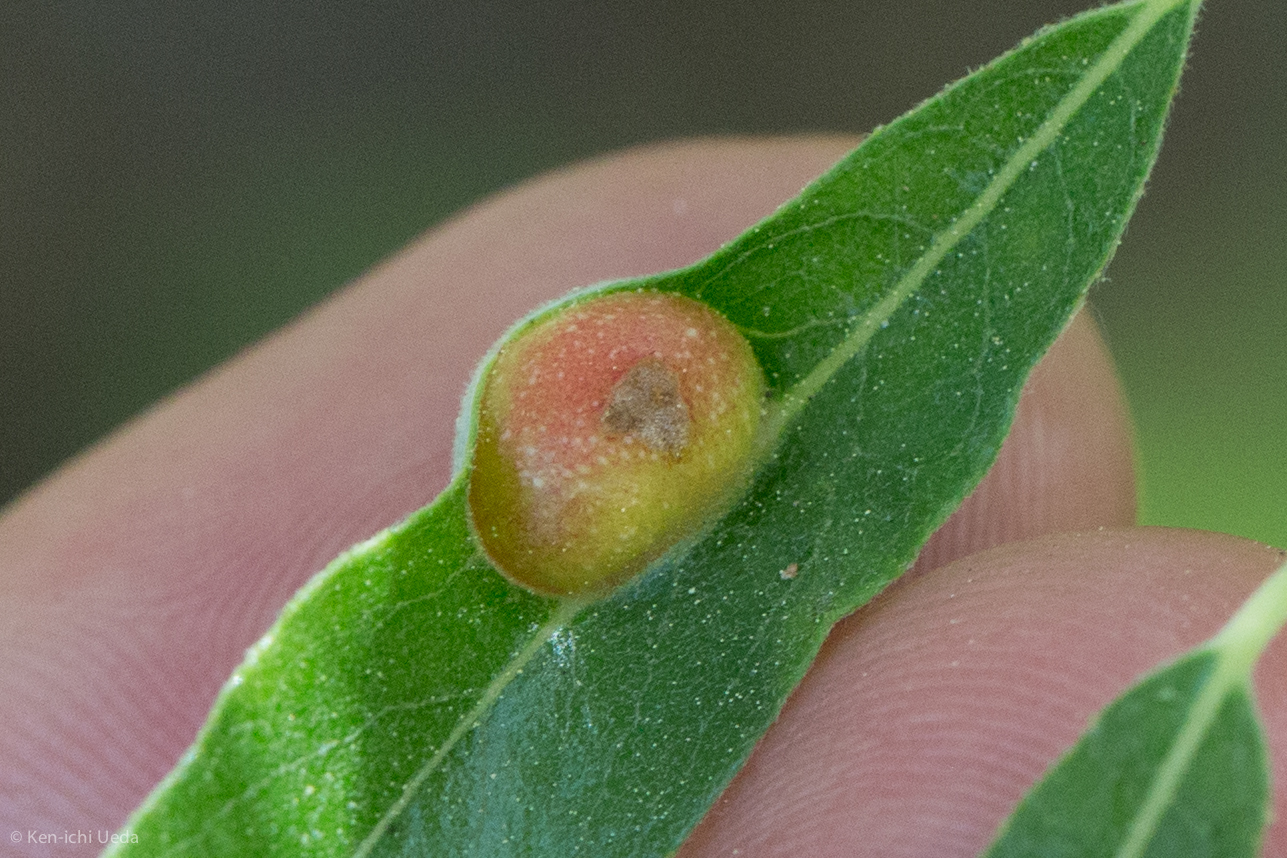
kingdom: Animalia
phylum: Arthropoda
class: Insecta
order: Hymenoptera
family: Tenthredinidae
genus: Euura
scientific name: Euura
